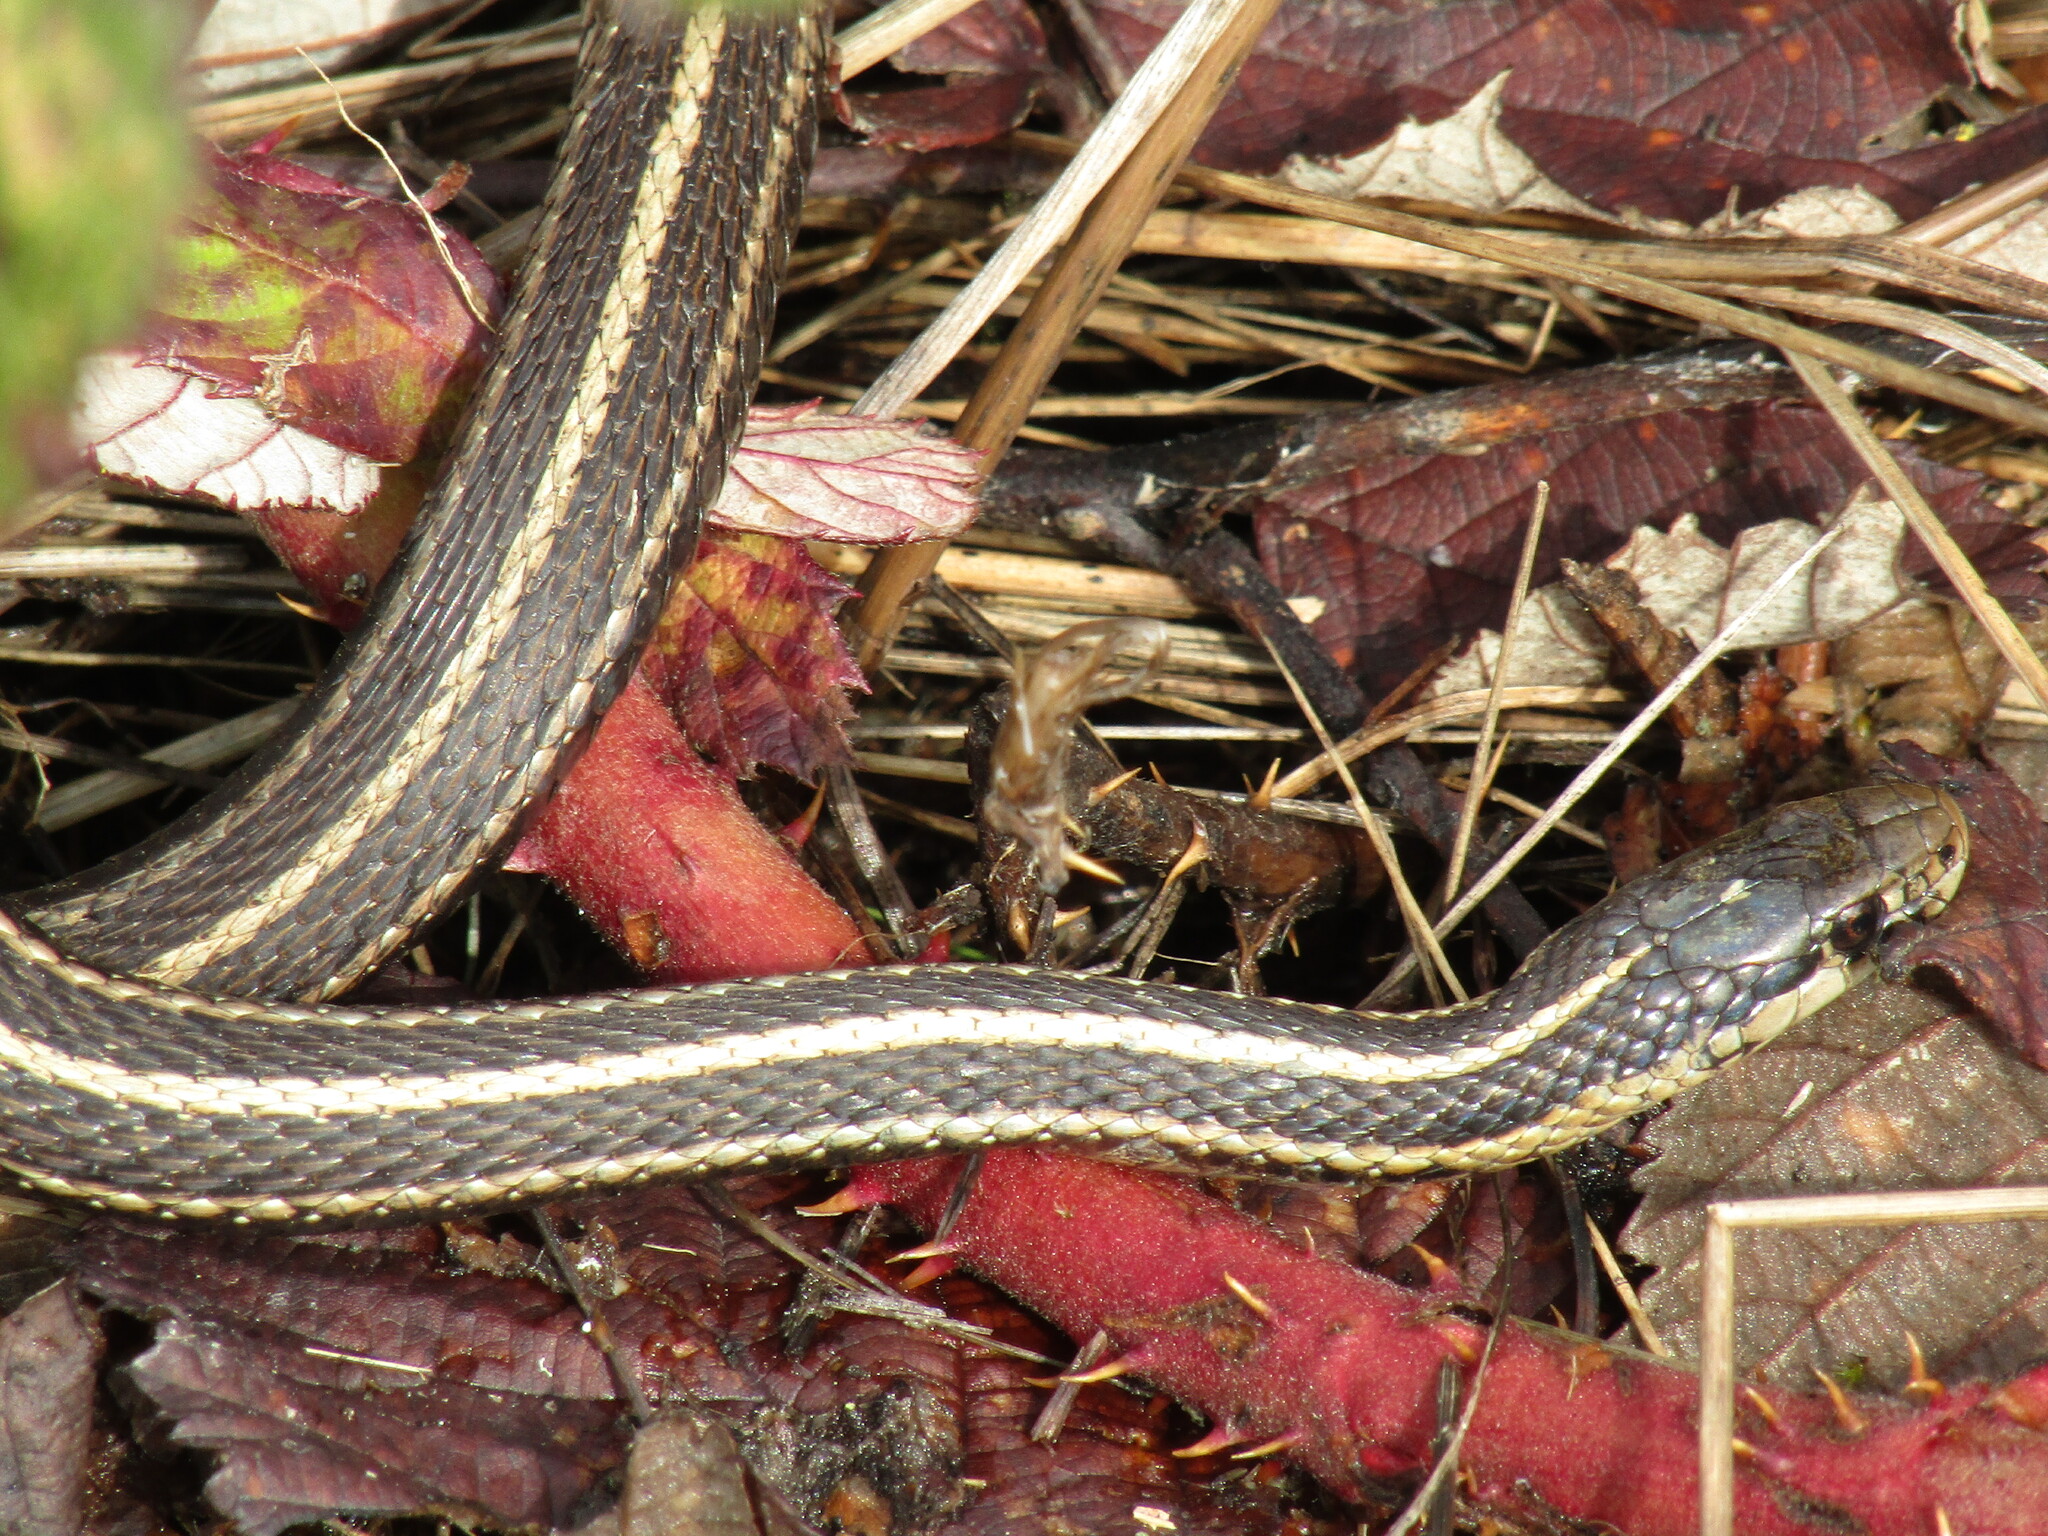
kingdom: Animalia
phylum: Chordata
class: Squamata
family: Colubridae
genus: Thamnophis
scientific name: Thamnophis ordinoides
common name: Northwestern garter snake
